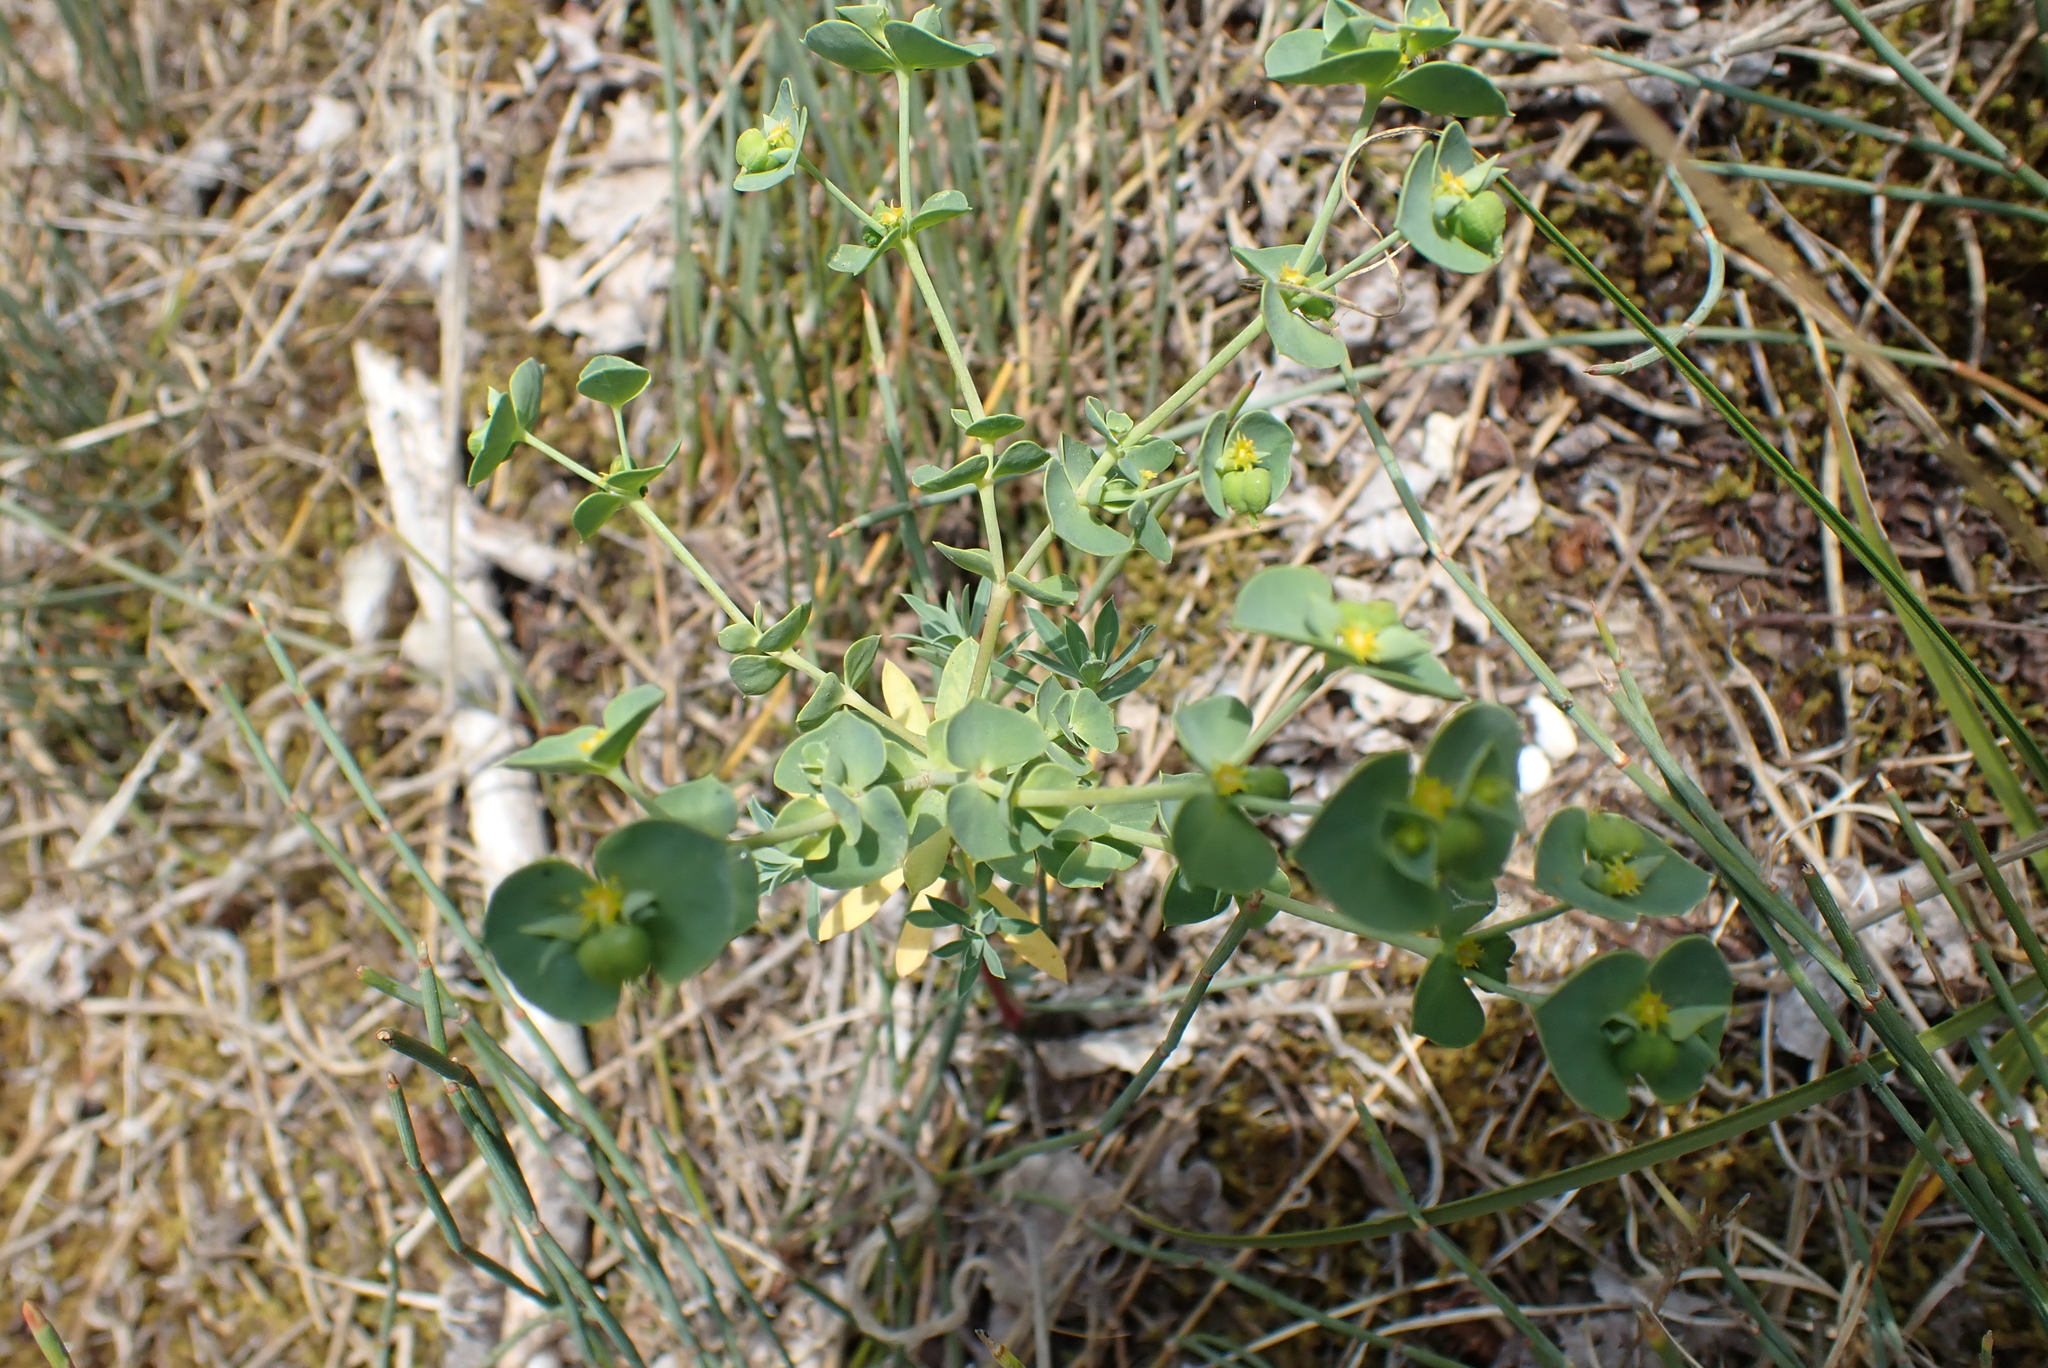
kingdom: Plantae
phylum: Tracheophyta
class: Magnoliopsida
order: Malpighiales
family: Euphorbiaceae
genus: Euphorbia
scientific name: Euphorbia portlandica
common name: Portland spurge
